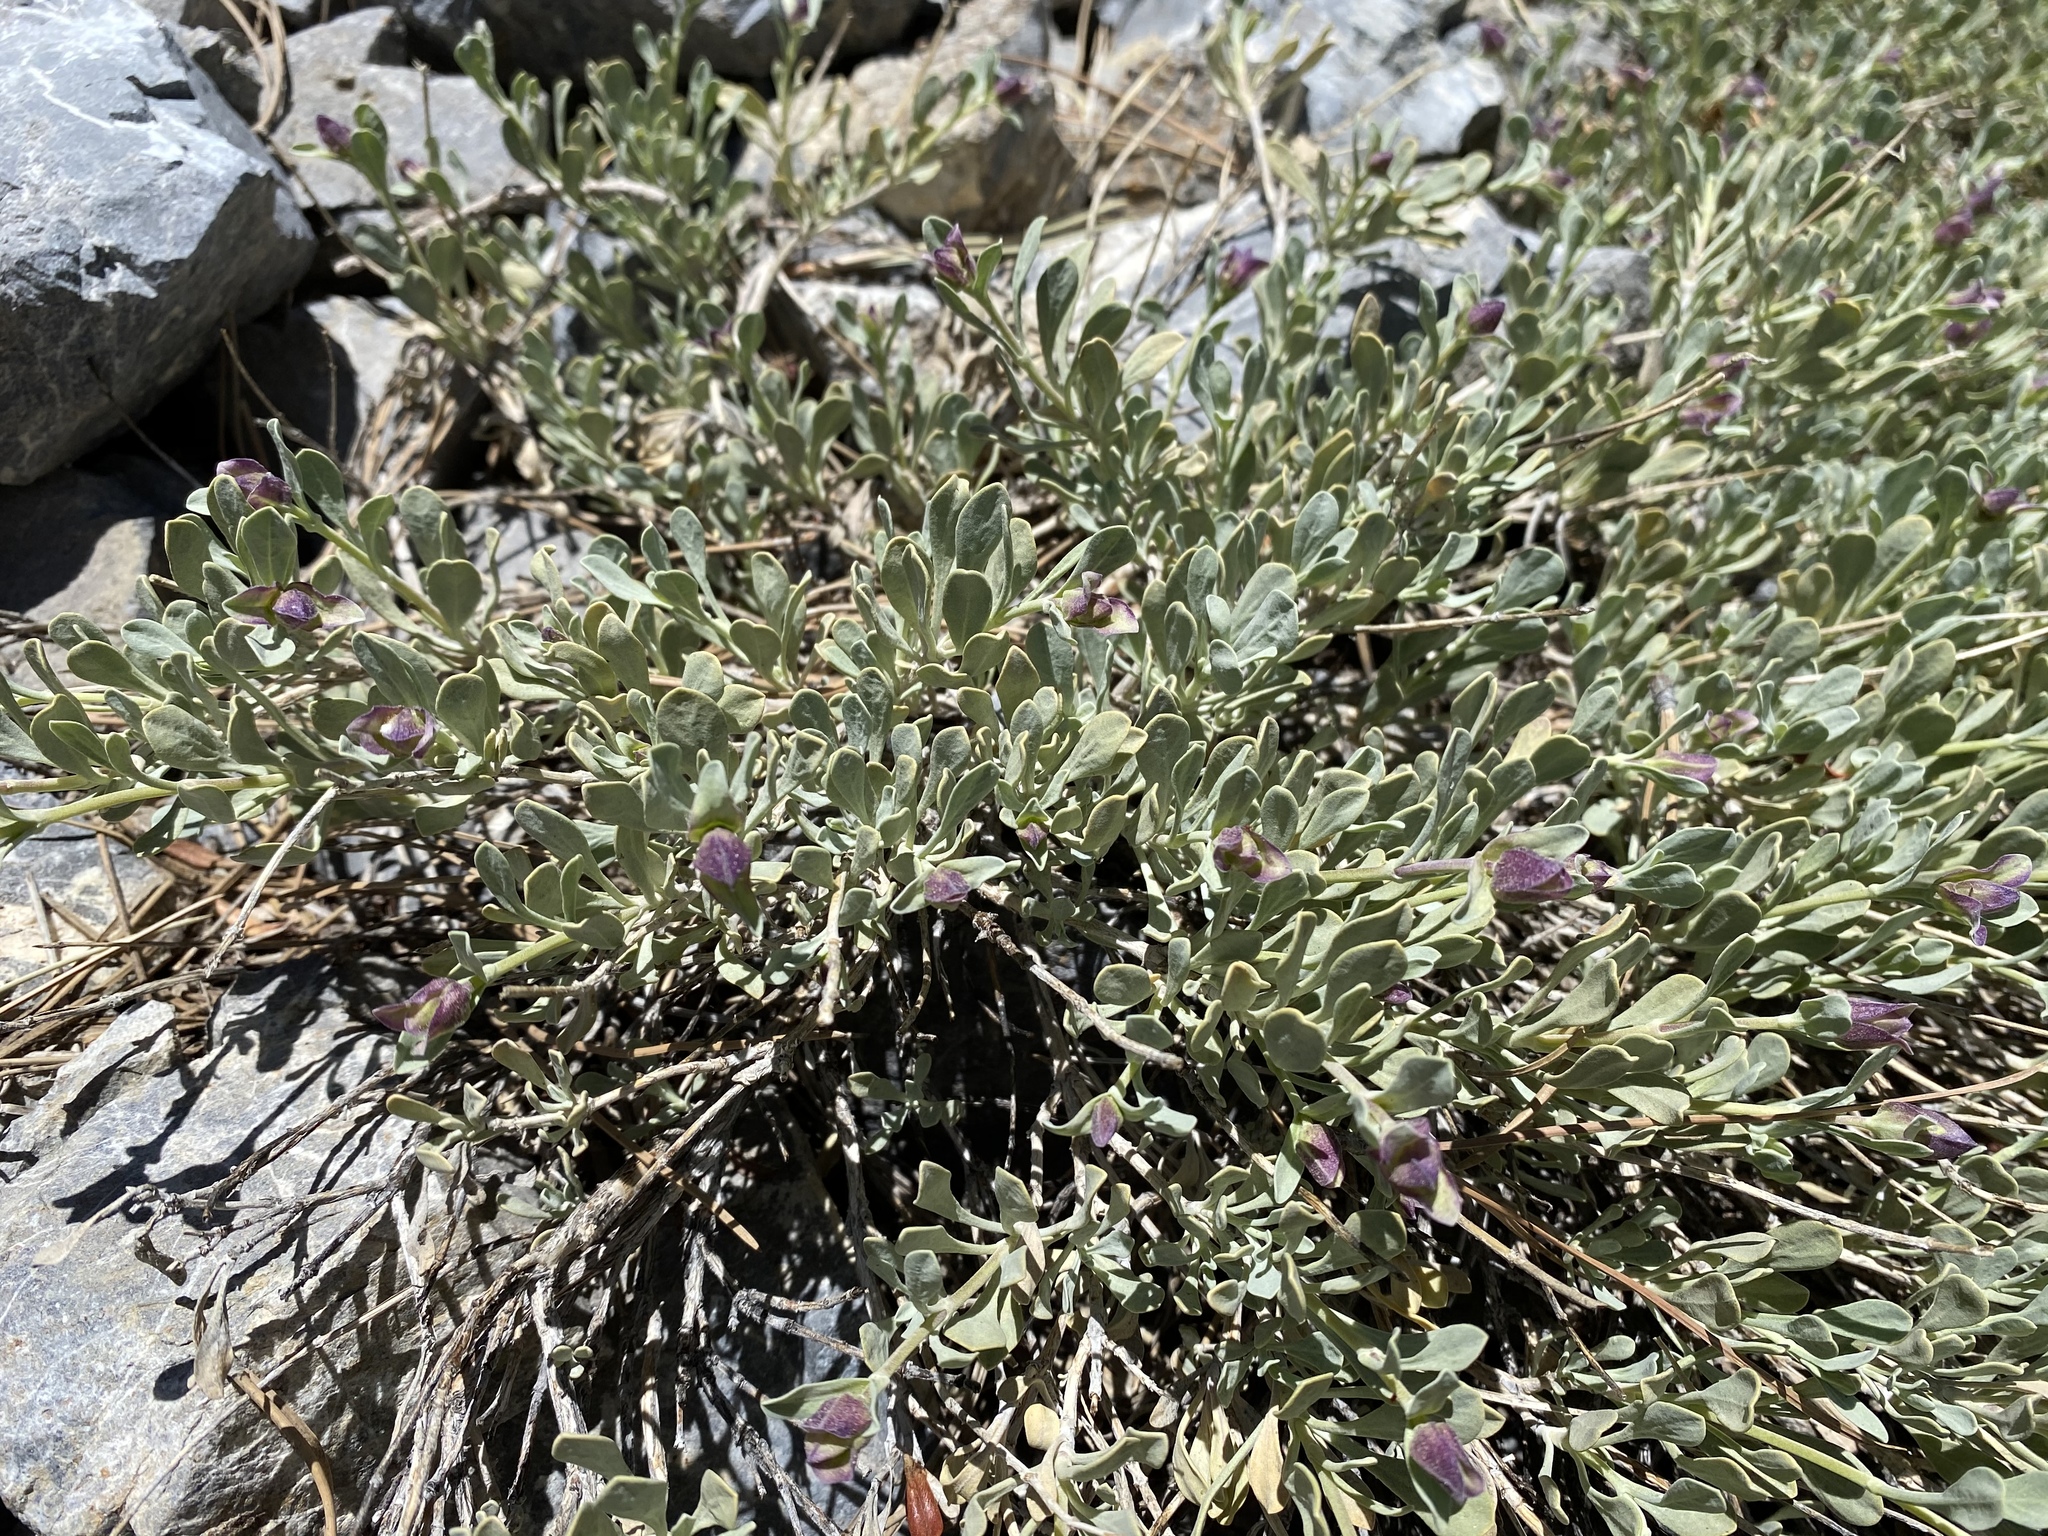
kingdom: Plantae
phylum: Tracheophyta
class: Magnoliopsida
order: Lamiales
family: Lamiaceae
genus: Salvia
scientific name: Salvia dorrii
